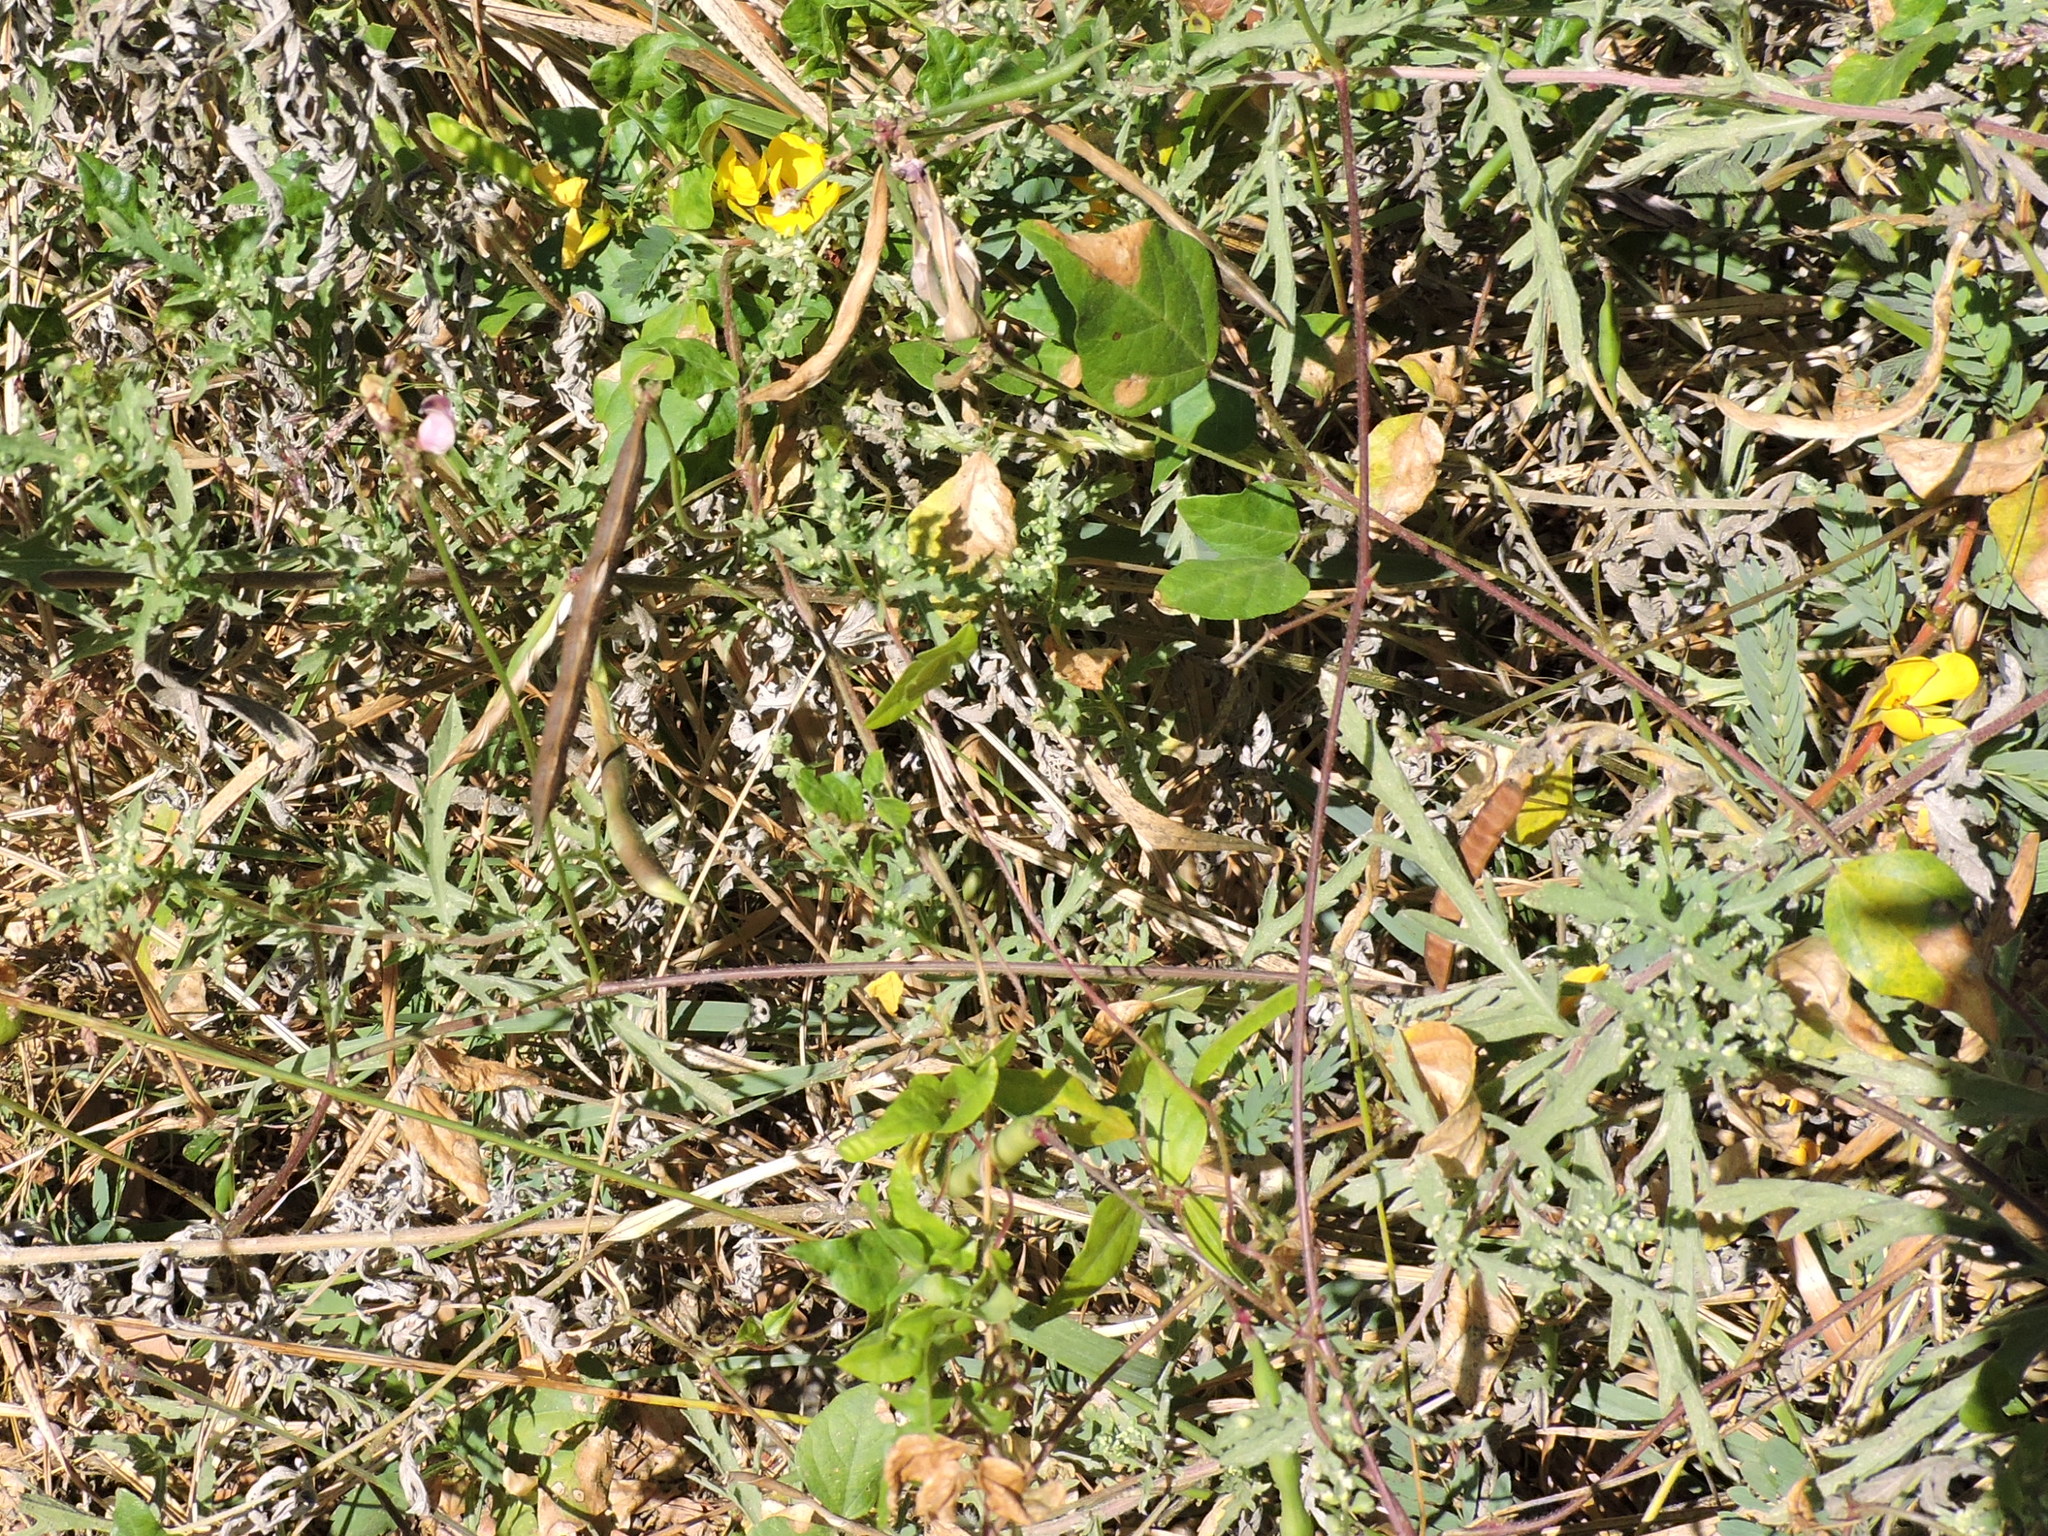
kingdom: Plantae
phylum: Tracheophyta
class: Magnoliopsida
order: Fabales
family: Fabaceae
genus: Strophostyles
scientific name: Strophostyles helvola
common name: Trailing wild bean
